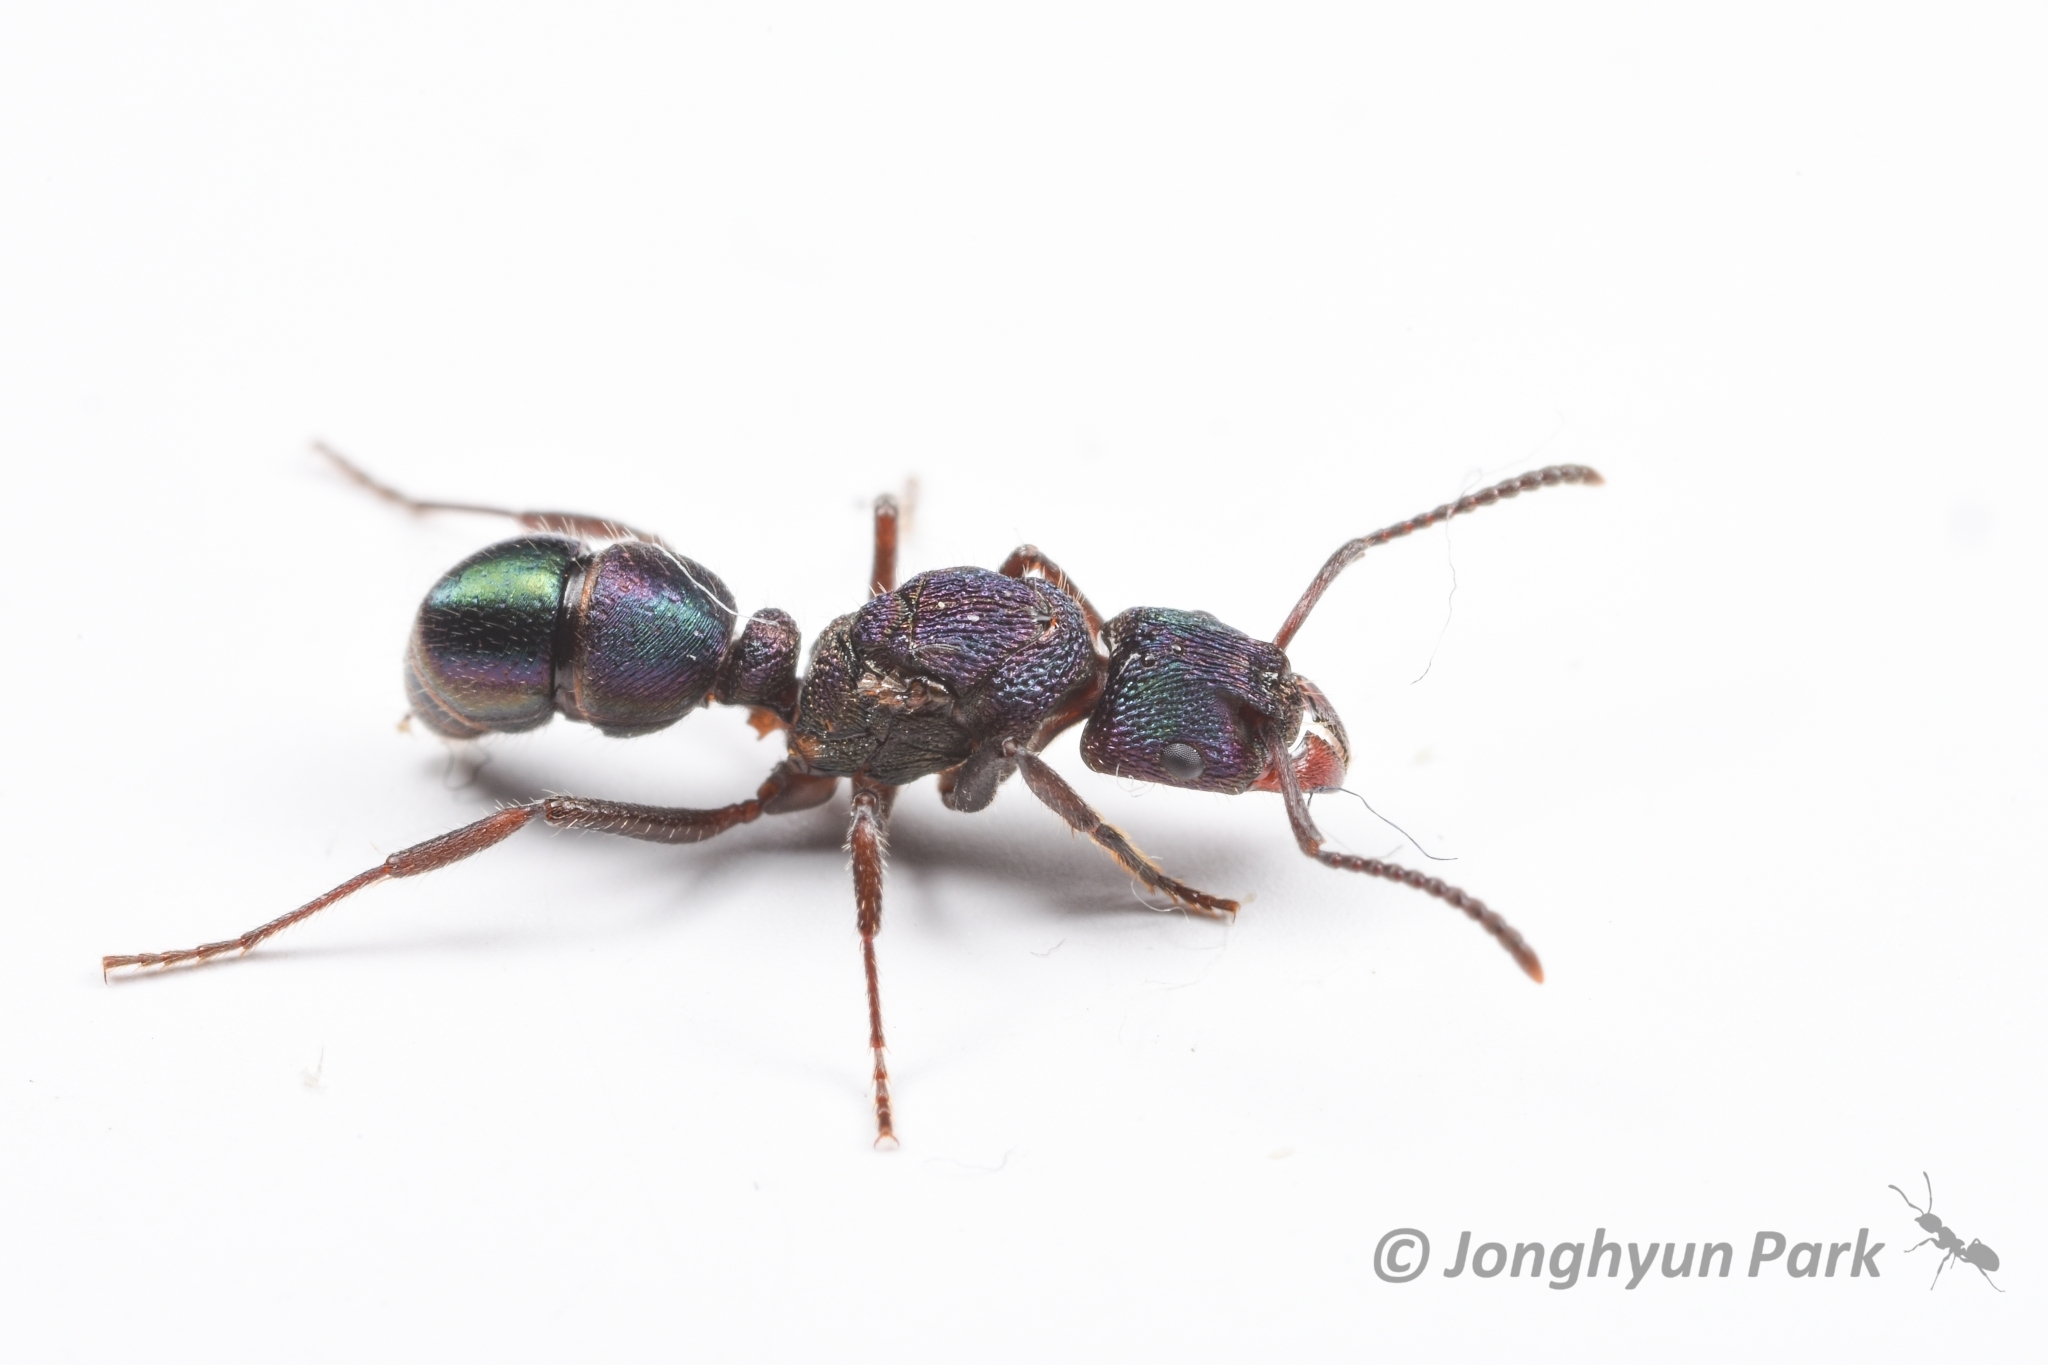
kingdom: Animalia
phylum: Arthropoda
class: Insecta
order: Hymenoptera
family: Formicidae
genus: Rhytidoponera
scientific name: Rhytidoponera metallica
